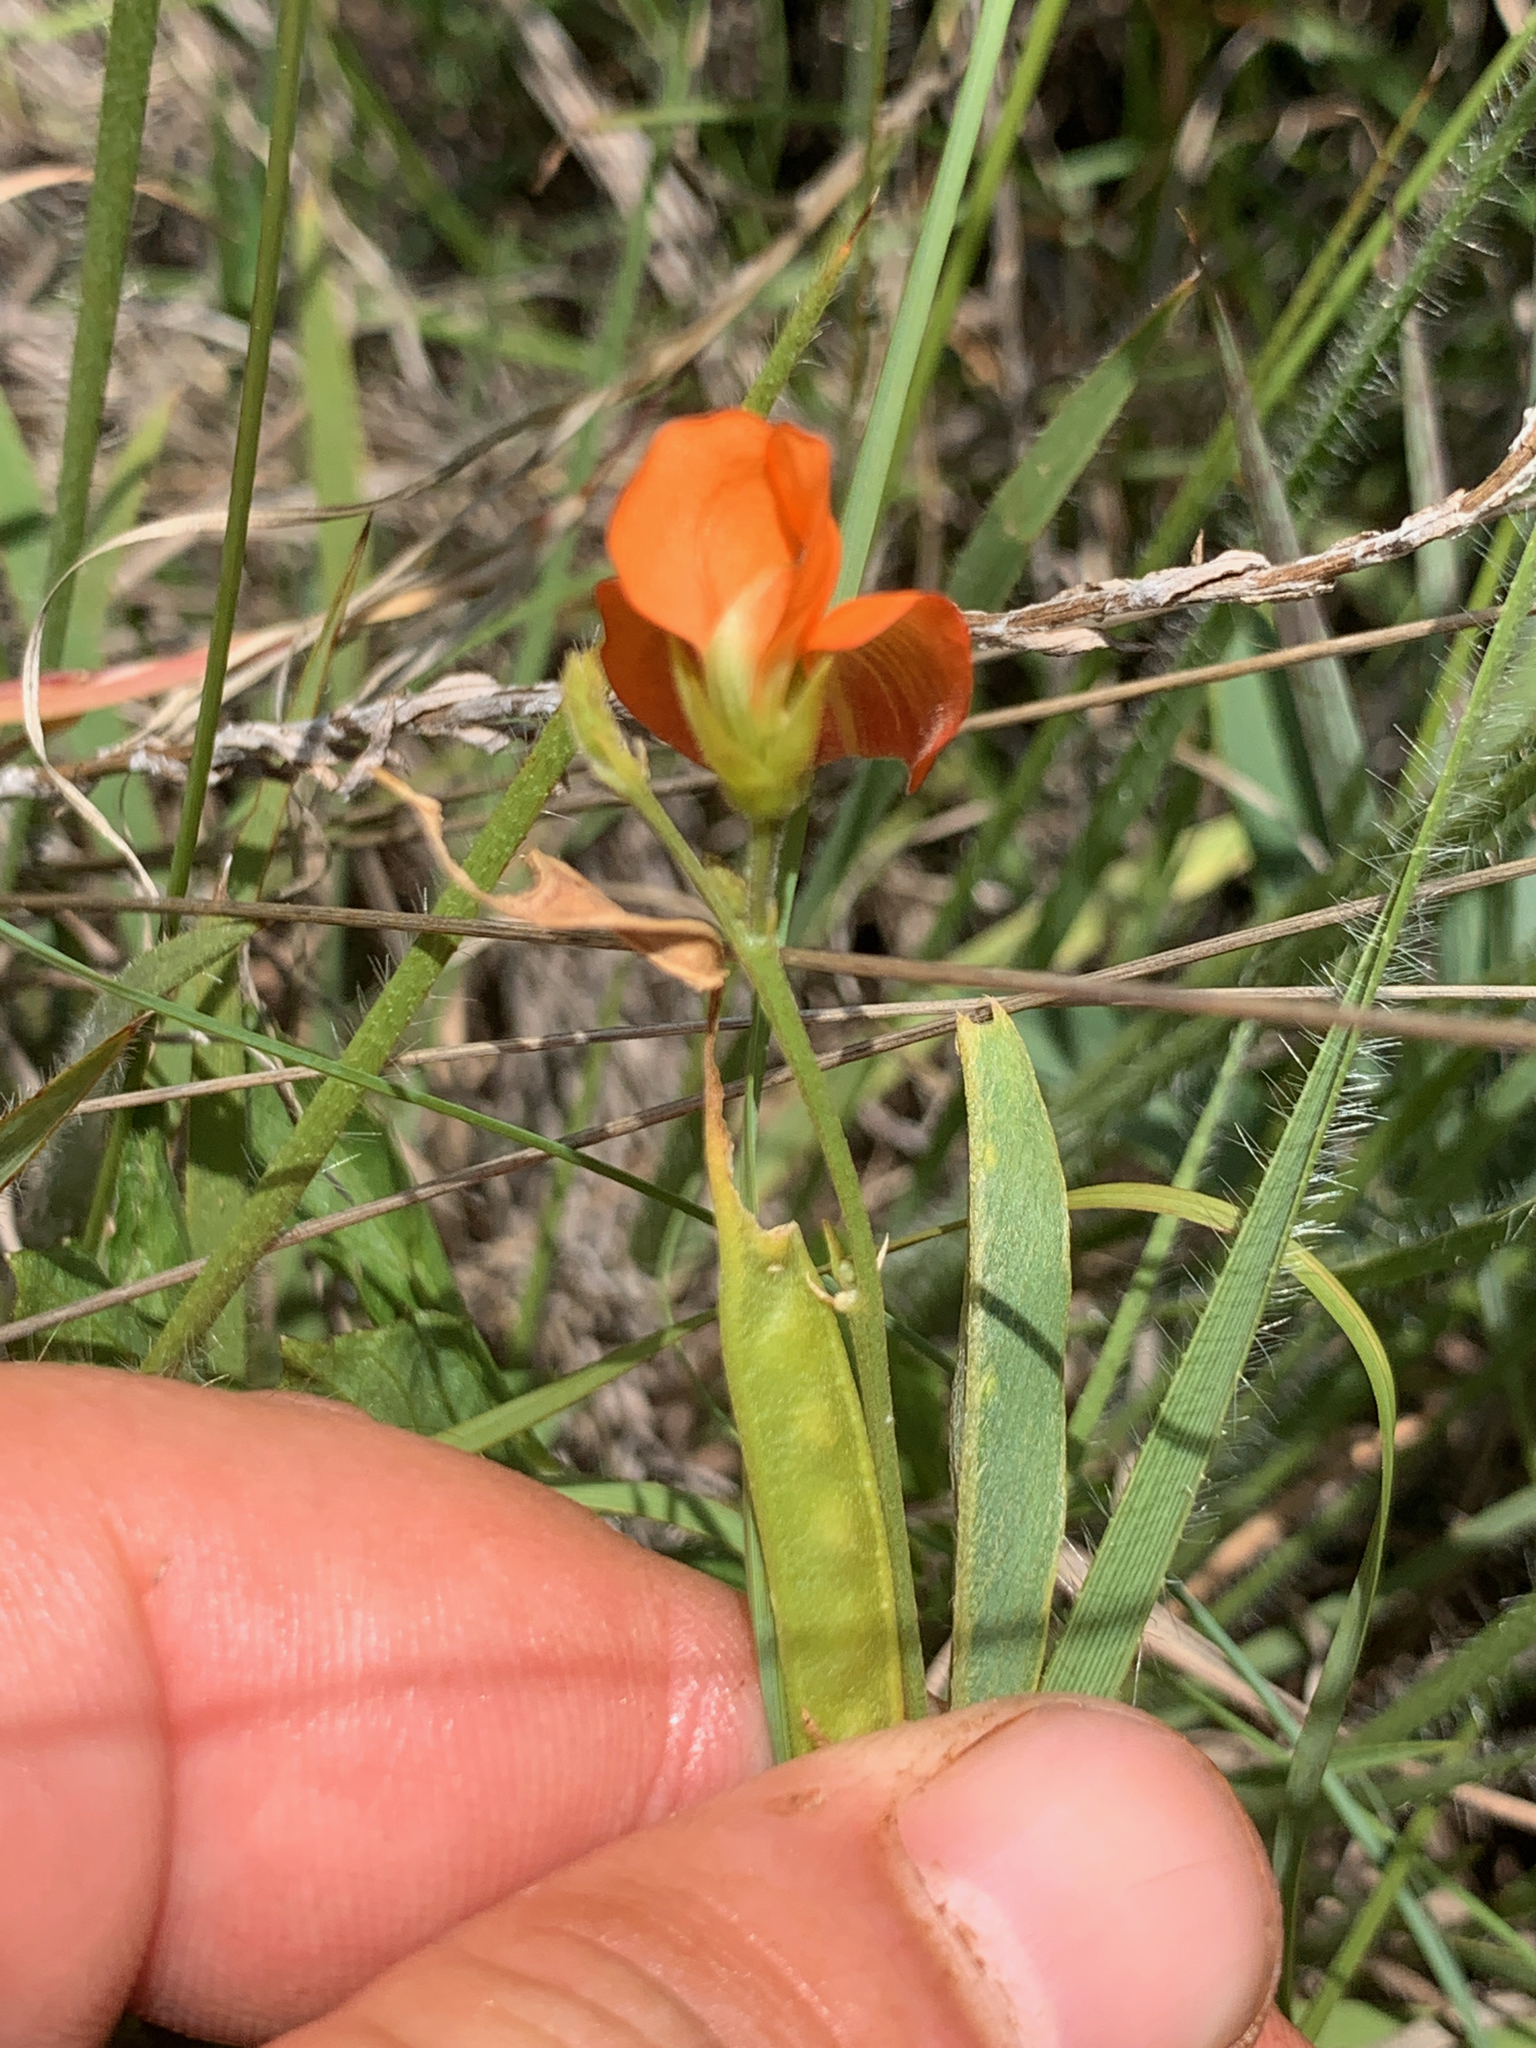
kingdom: Plantae
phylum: Tracheophyta
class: Magnoliopsida
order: Fabales
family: Fabaceae
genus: Tephrosia
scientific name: Tephrosia acaciifolia
